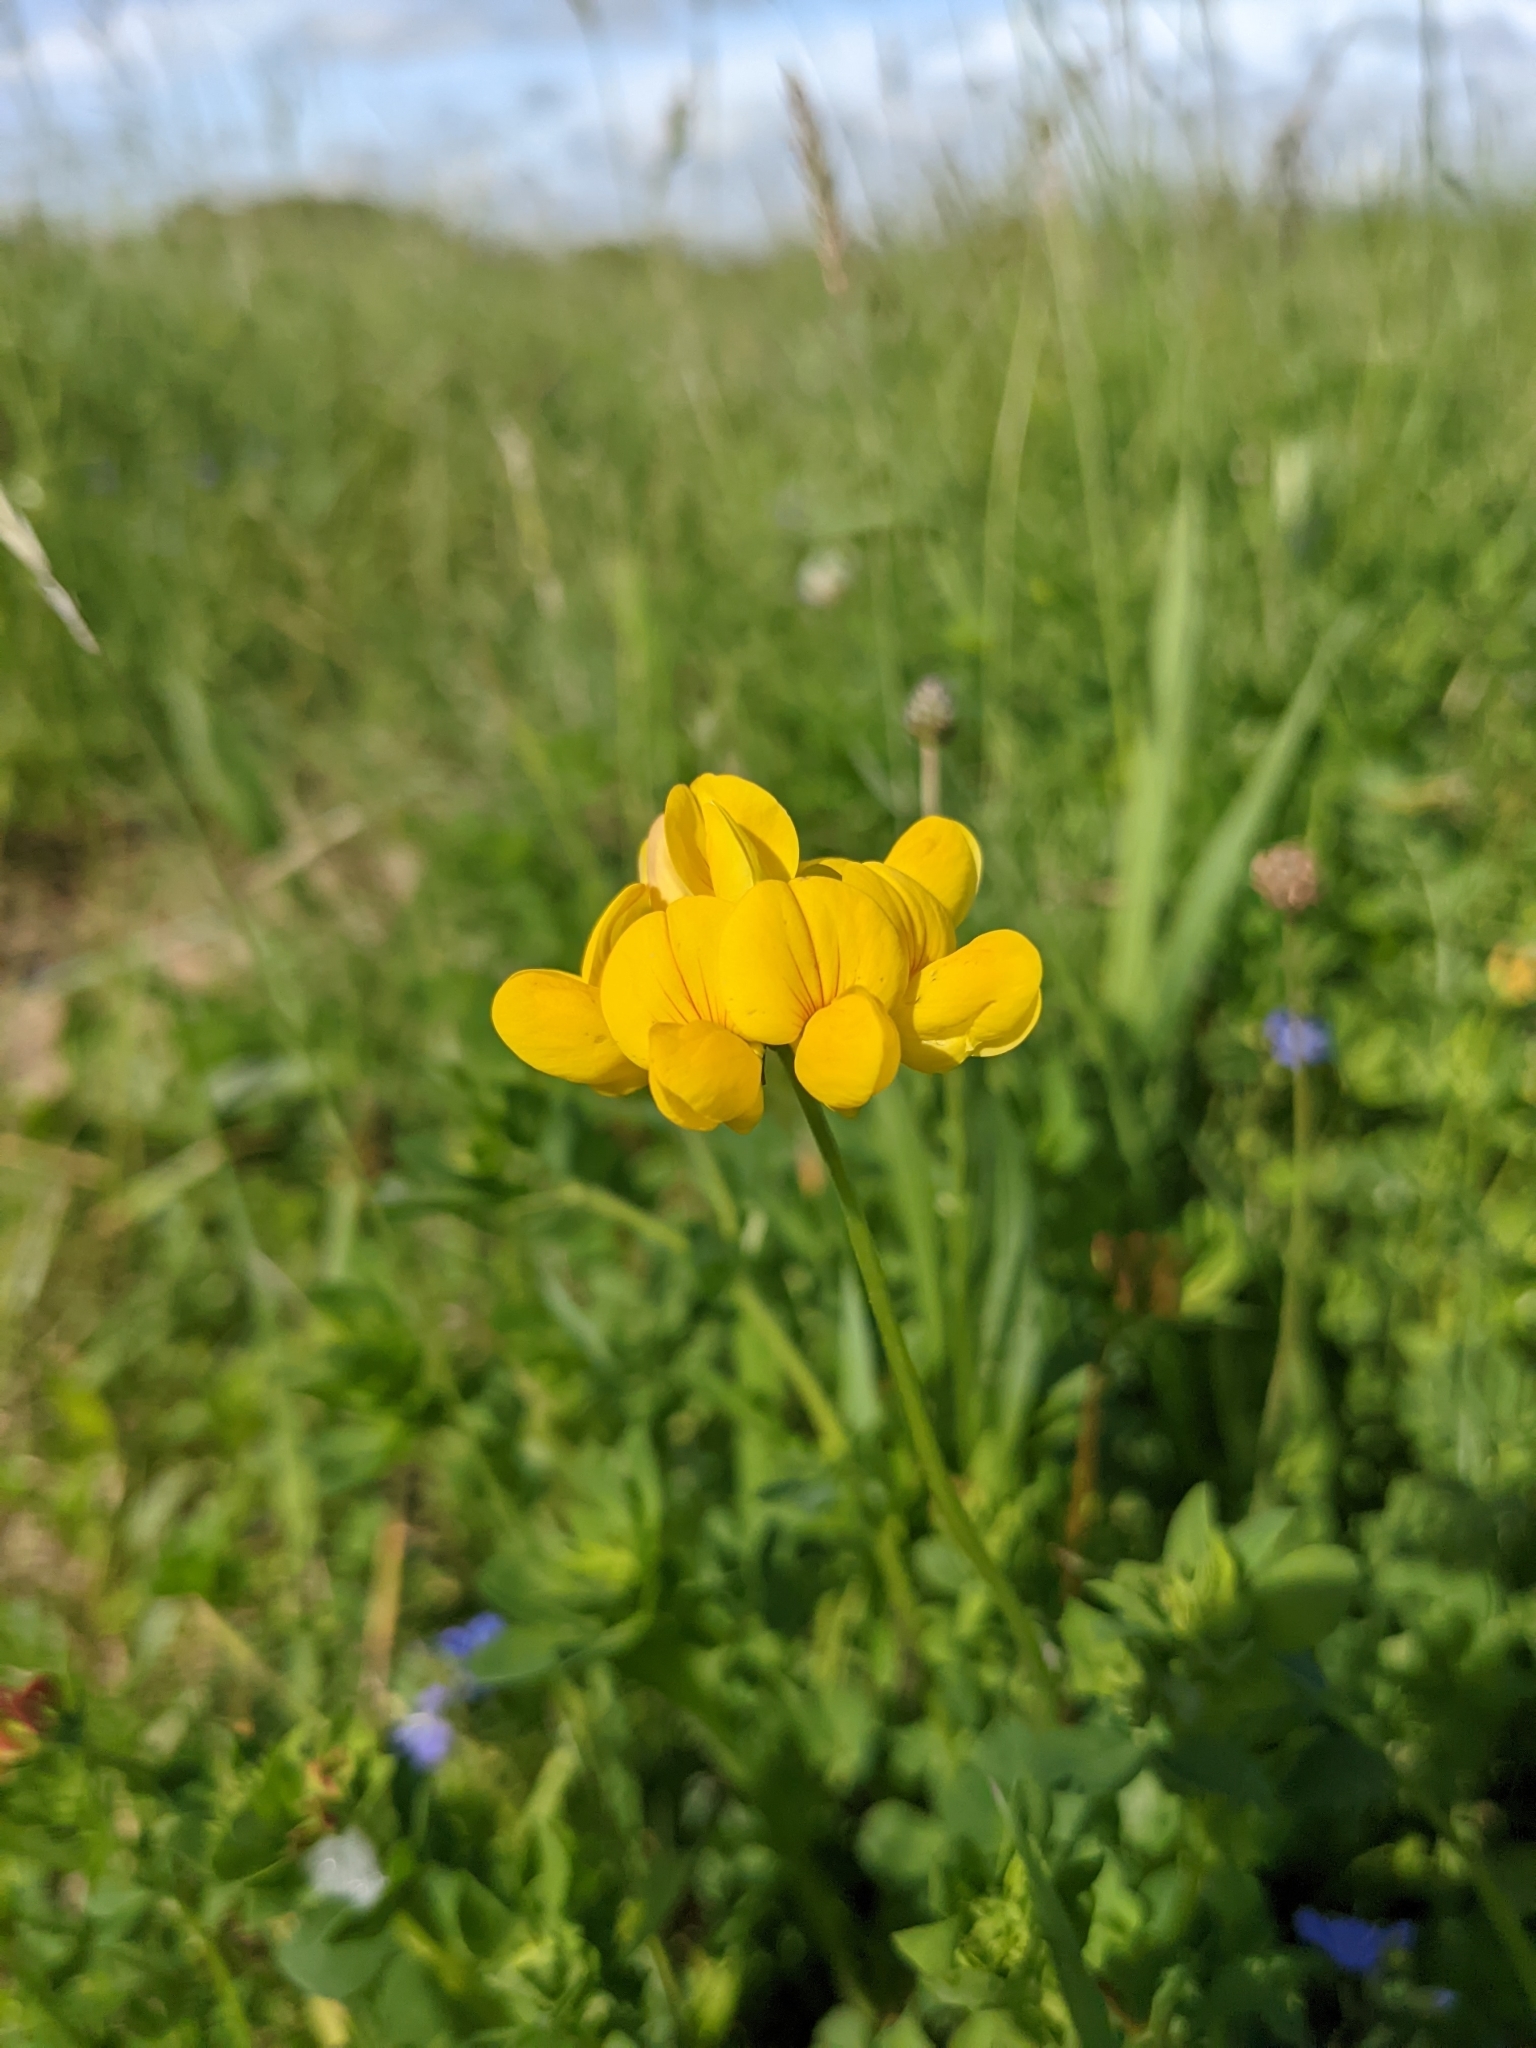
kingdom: Plantae
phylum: Tracheophyta
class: Magnoliopsida
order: Fabales
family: Fabaceae
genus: Lotus
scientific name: Lotus corniculatus
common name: Common bird's-foot-trefoil
